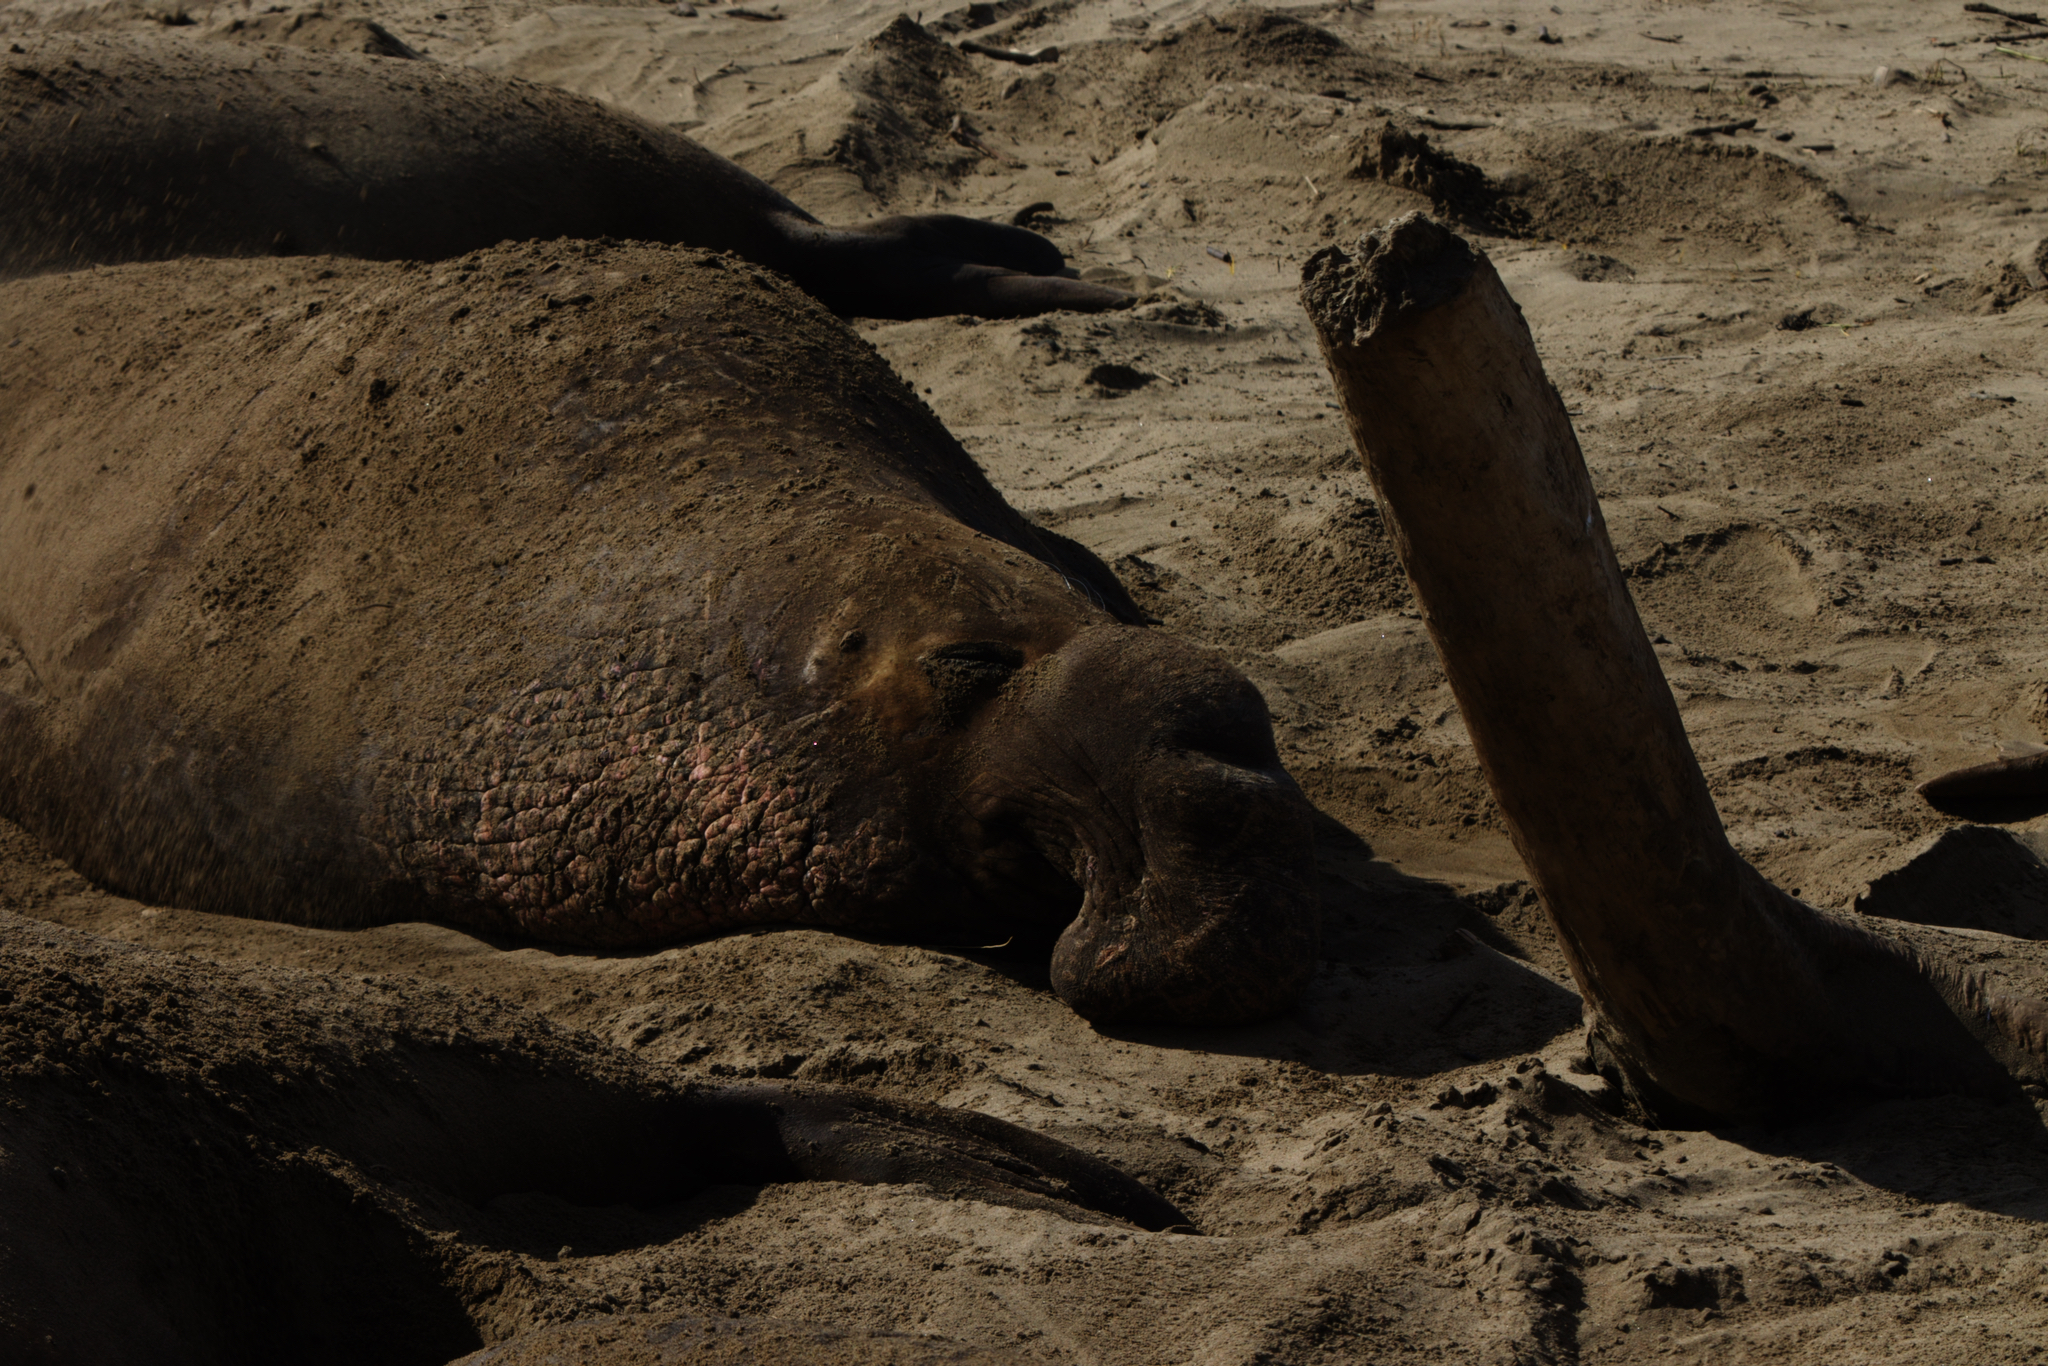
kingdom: Animalia
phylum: Chordata
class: Mammalia
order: Carnivora
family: Phocidae
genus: Mirounga
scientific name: Mirounga angustirostris
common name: Northern elephant seal
